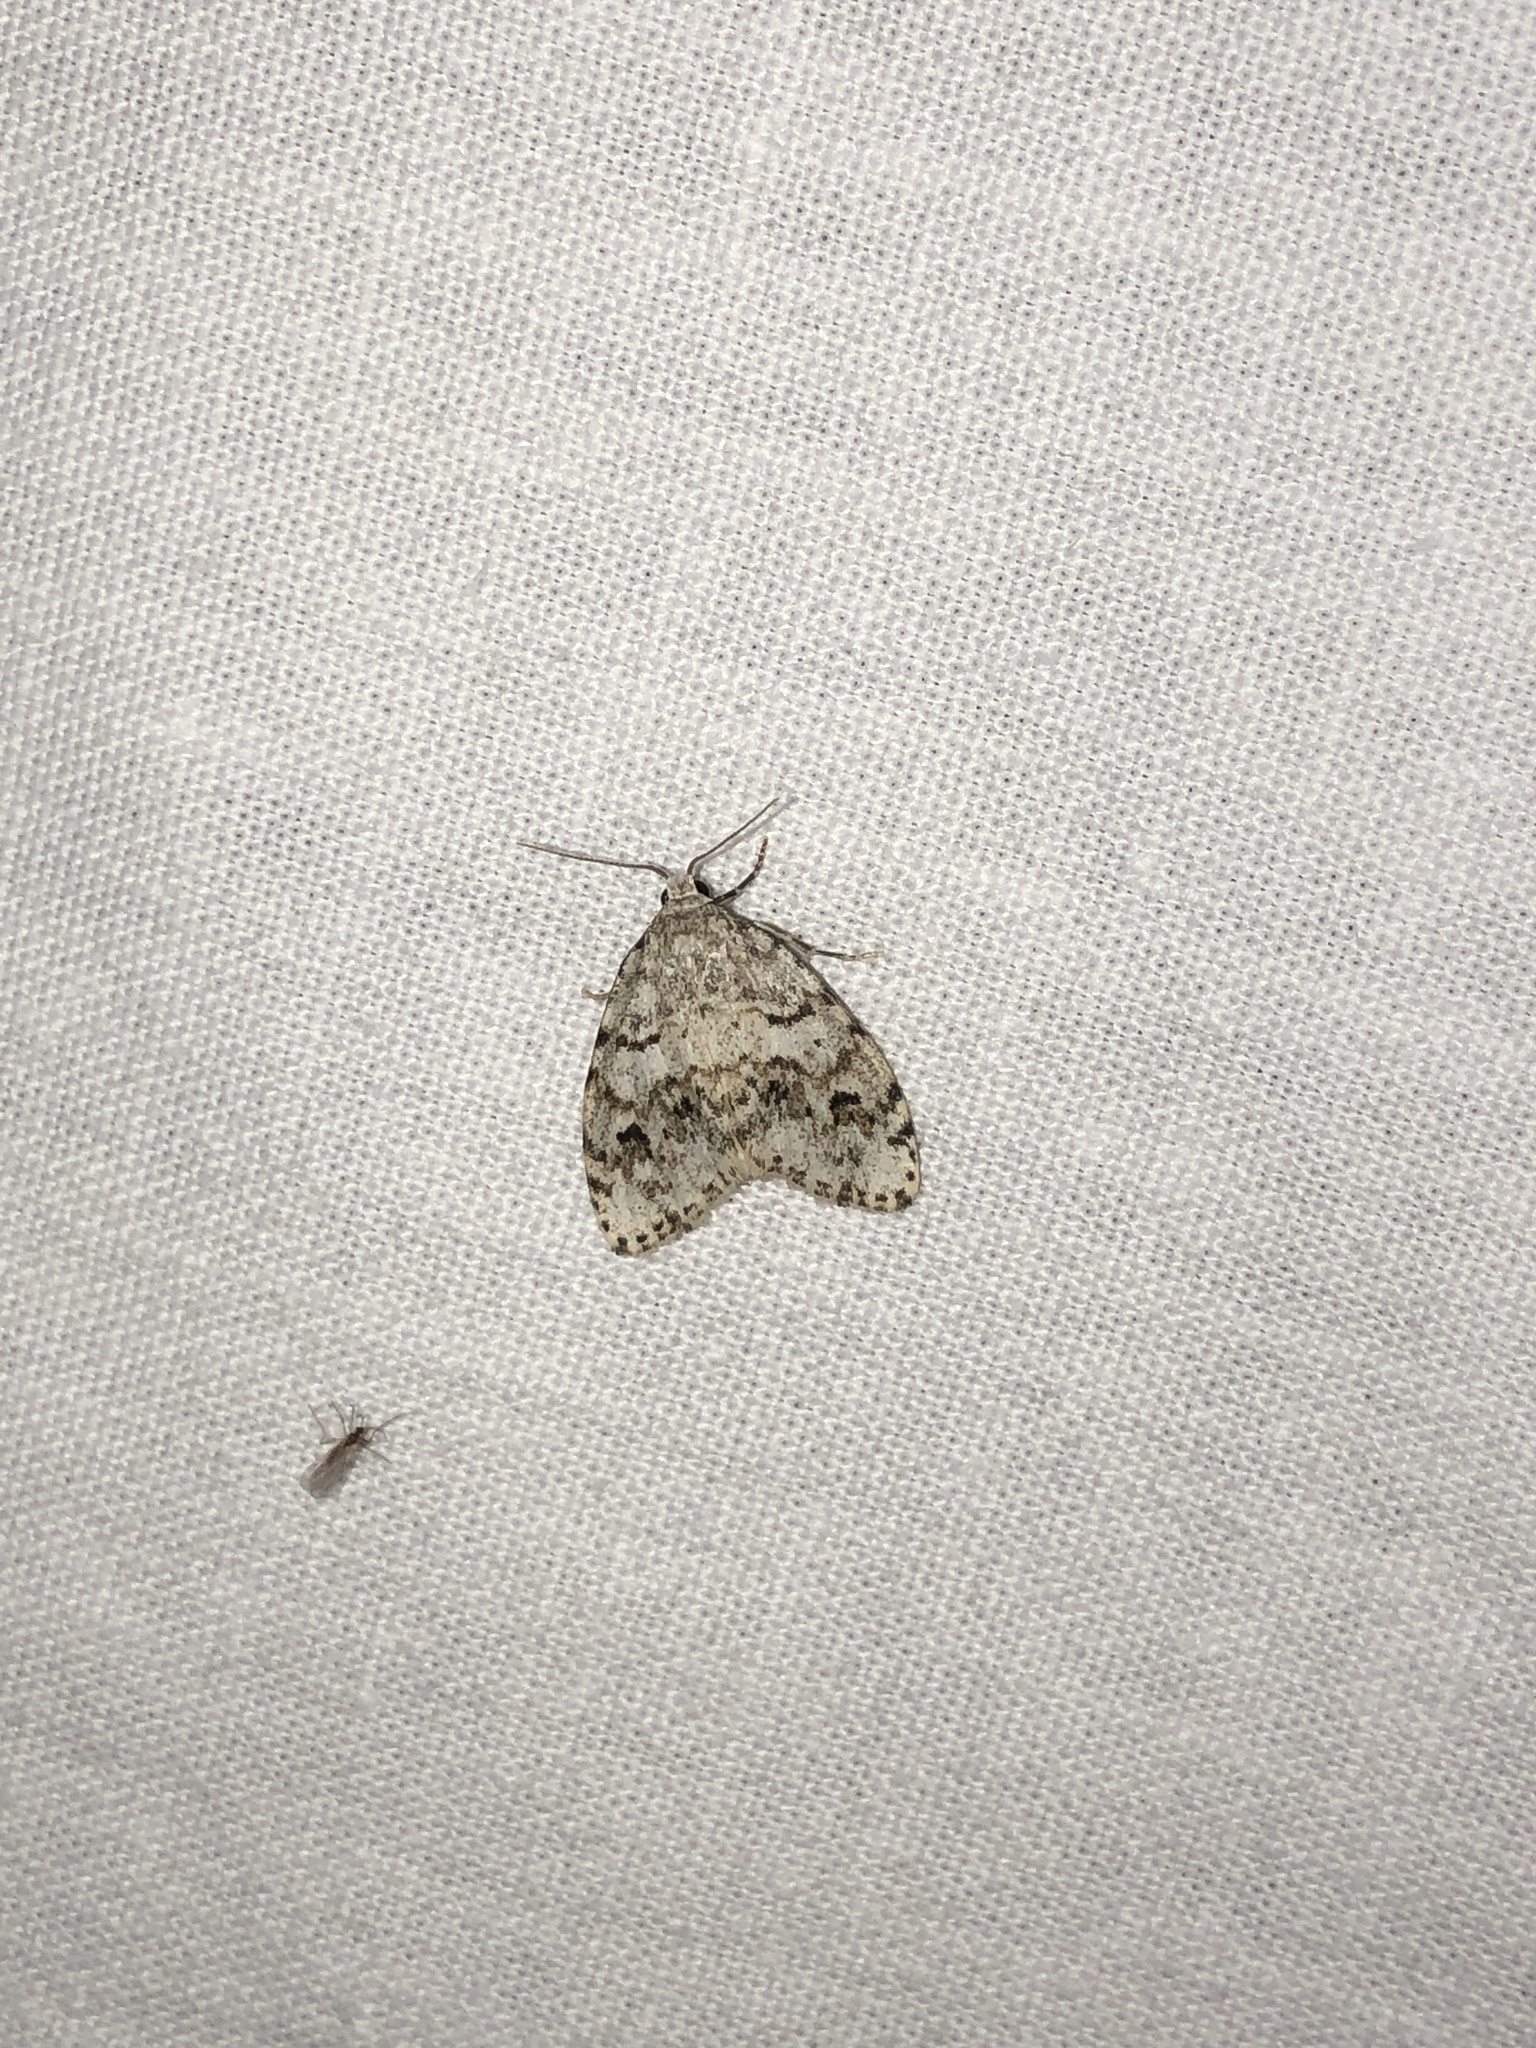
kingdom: Animalia
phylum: Arthropoda
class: Insecta
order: Lepidoptera
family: Erebidae
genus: Clemensia
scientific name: Clemensia umbrata
